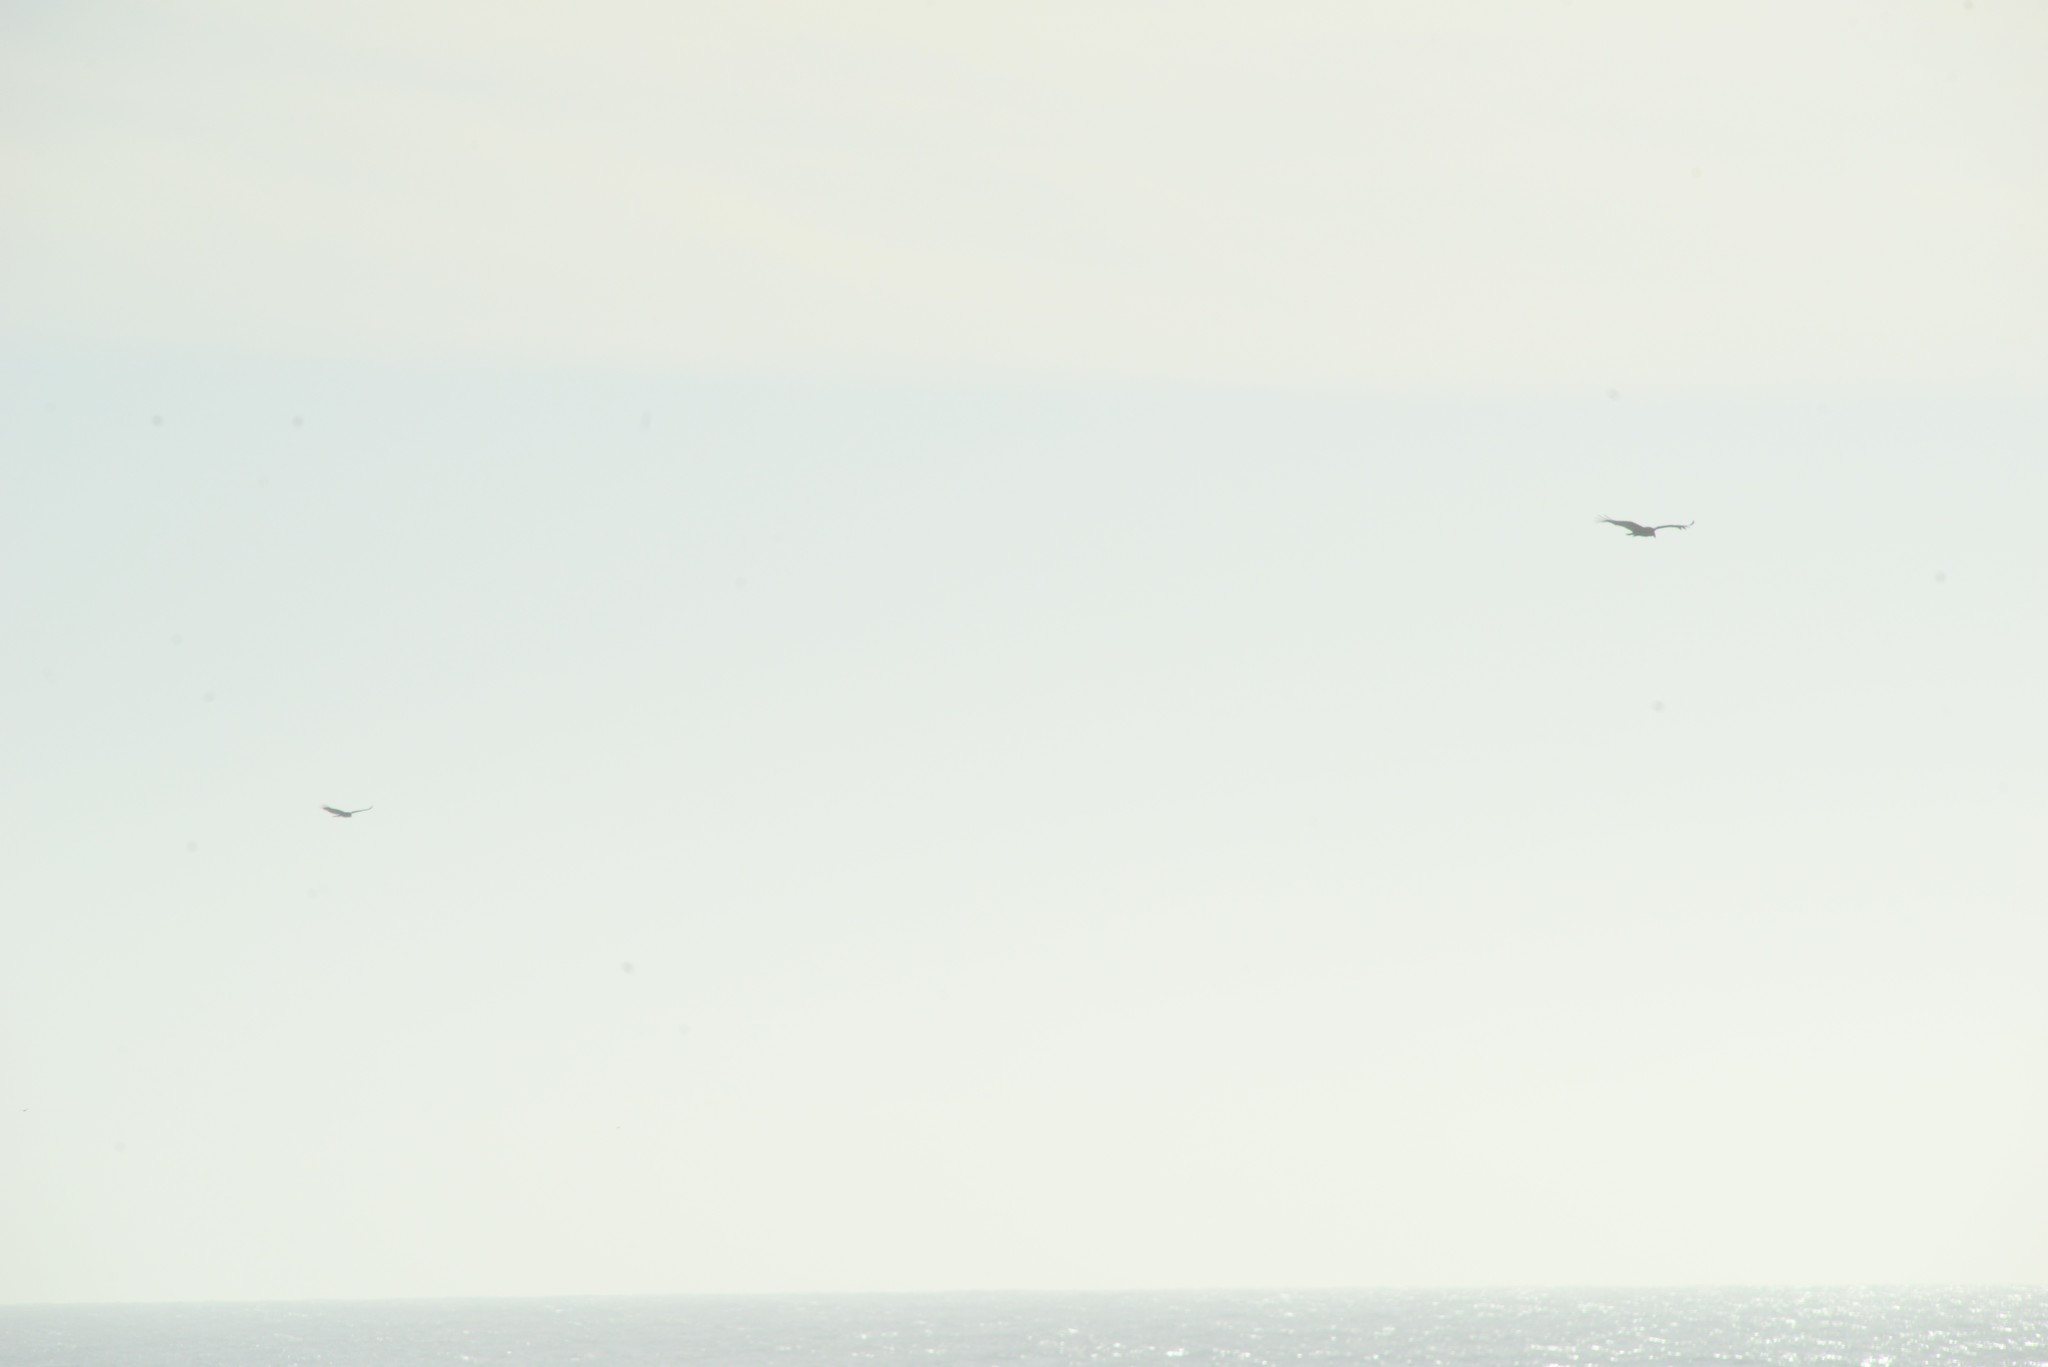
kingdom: Animalia
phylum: Chordata
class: Aves
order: Accipitriformes
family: Cathartidae
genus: Cathartes
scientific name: Cathartes aura
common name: Turkey vulture
